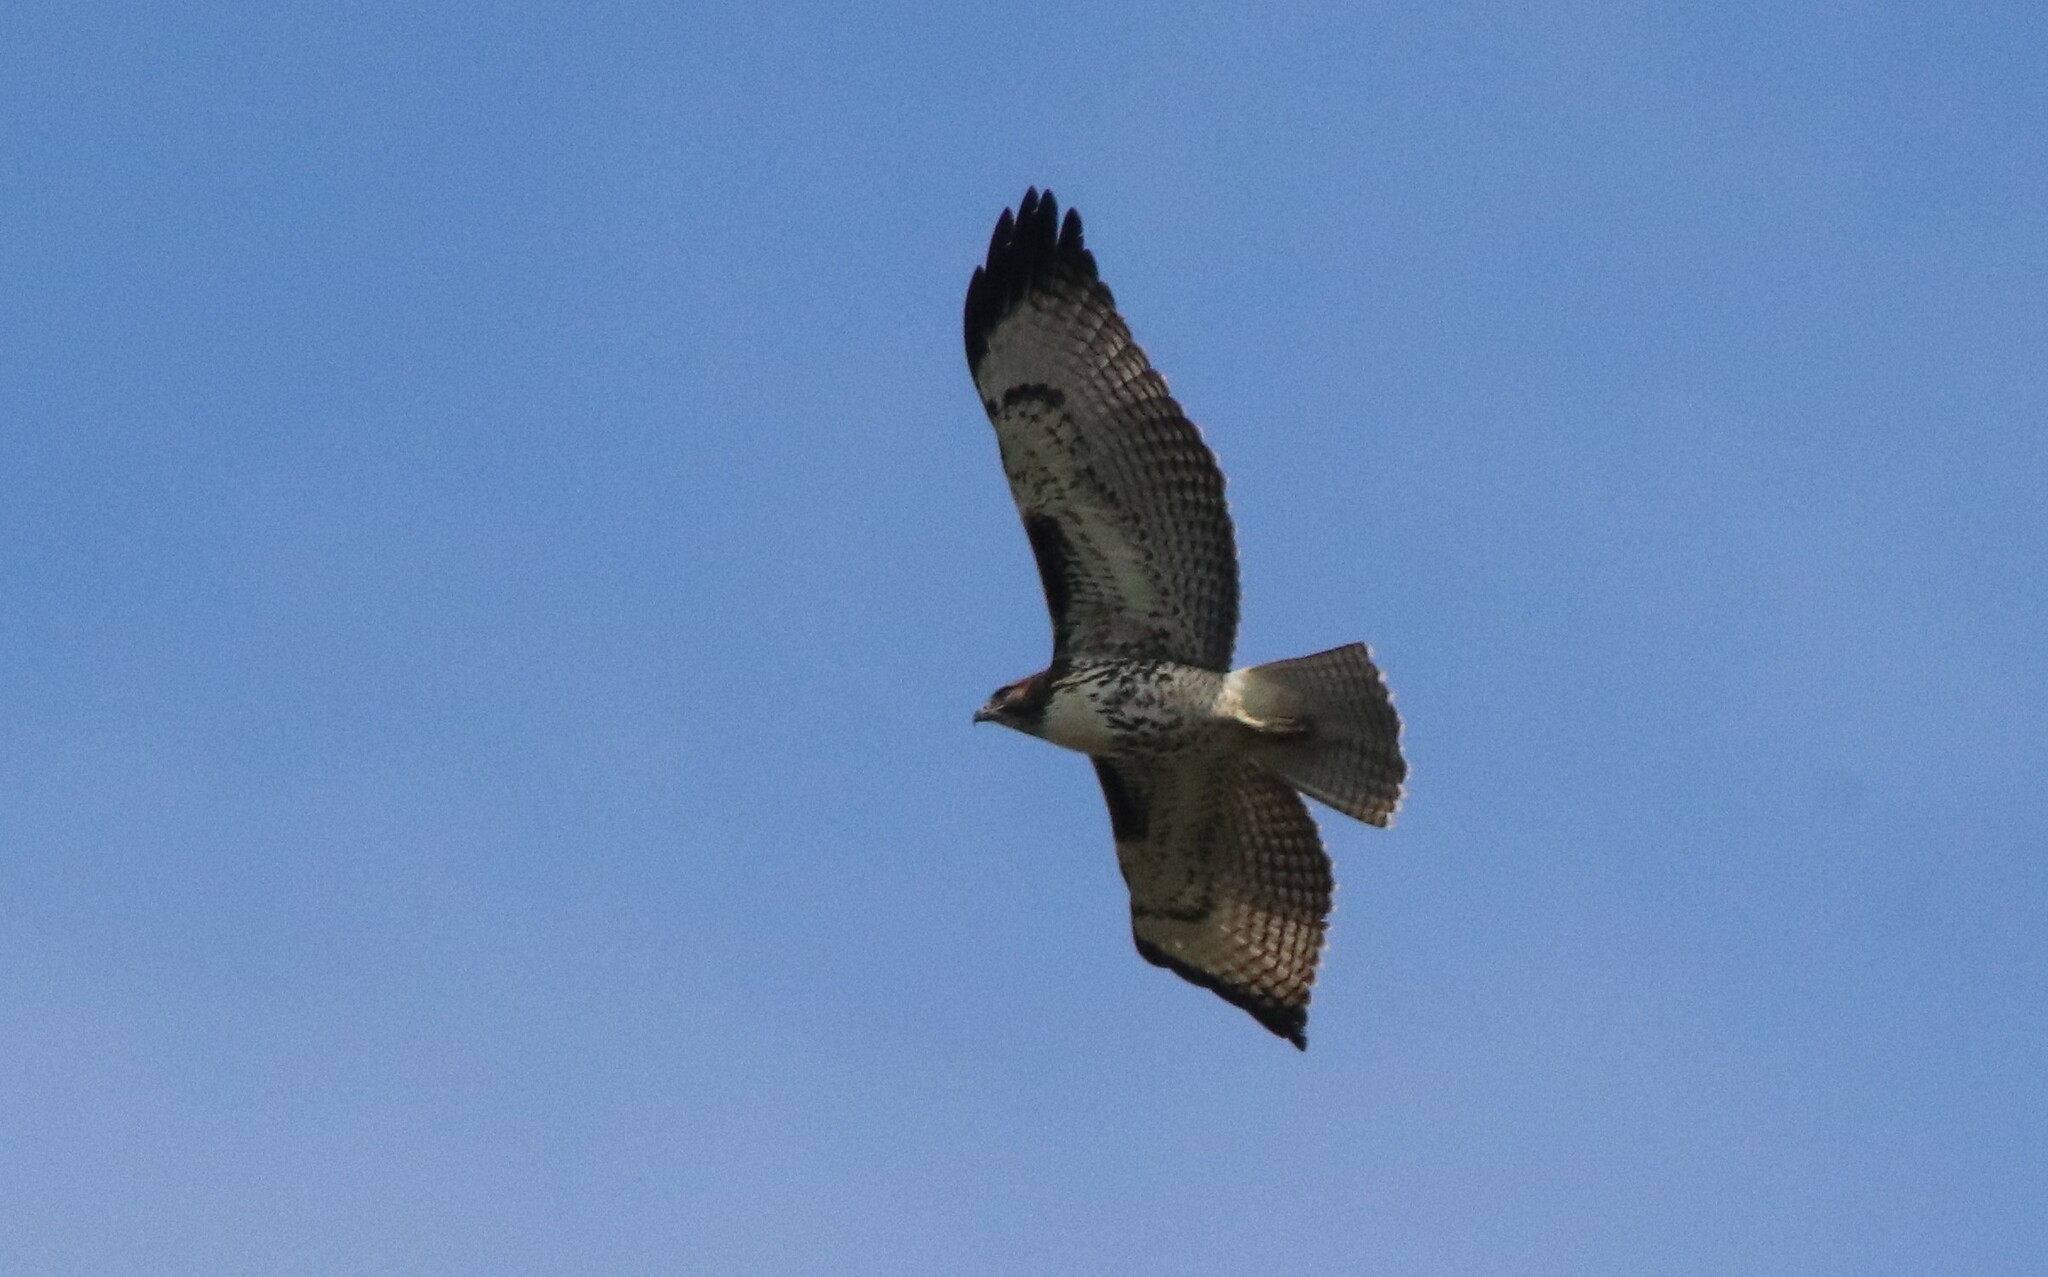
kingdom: Animalia
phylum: Chordata
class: Aves
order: Accipitriformes
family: Accipitridae
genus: Buteo
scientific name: Buteo jamaicensis
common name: Red-tailed hawk
